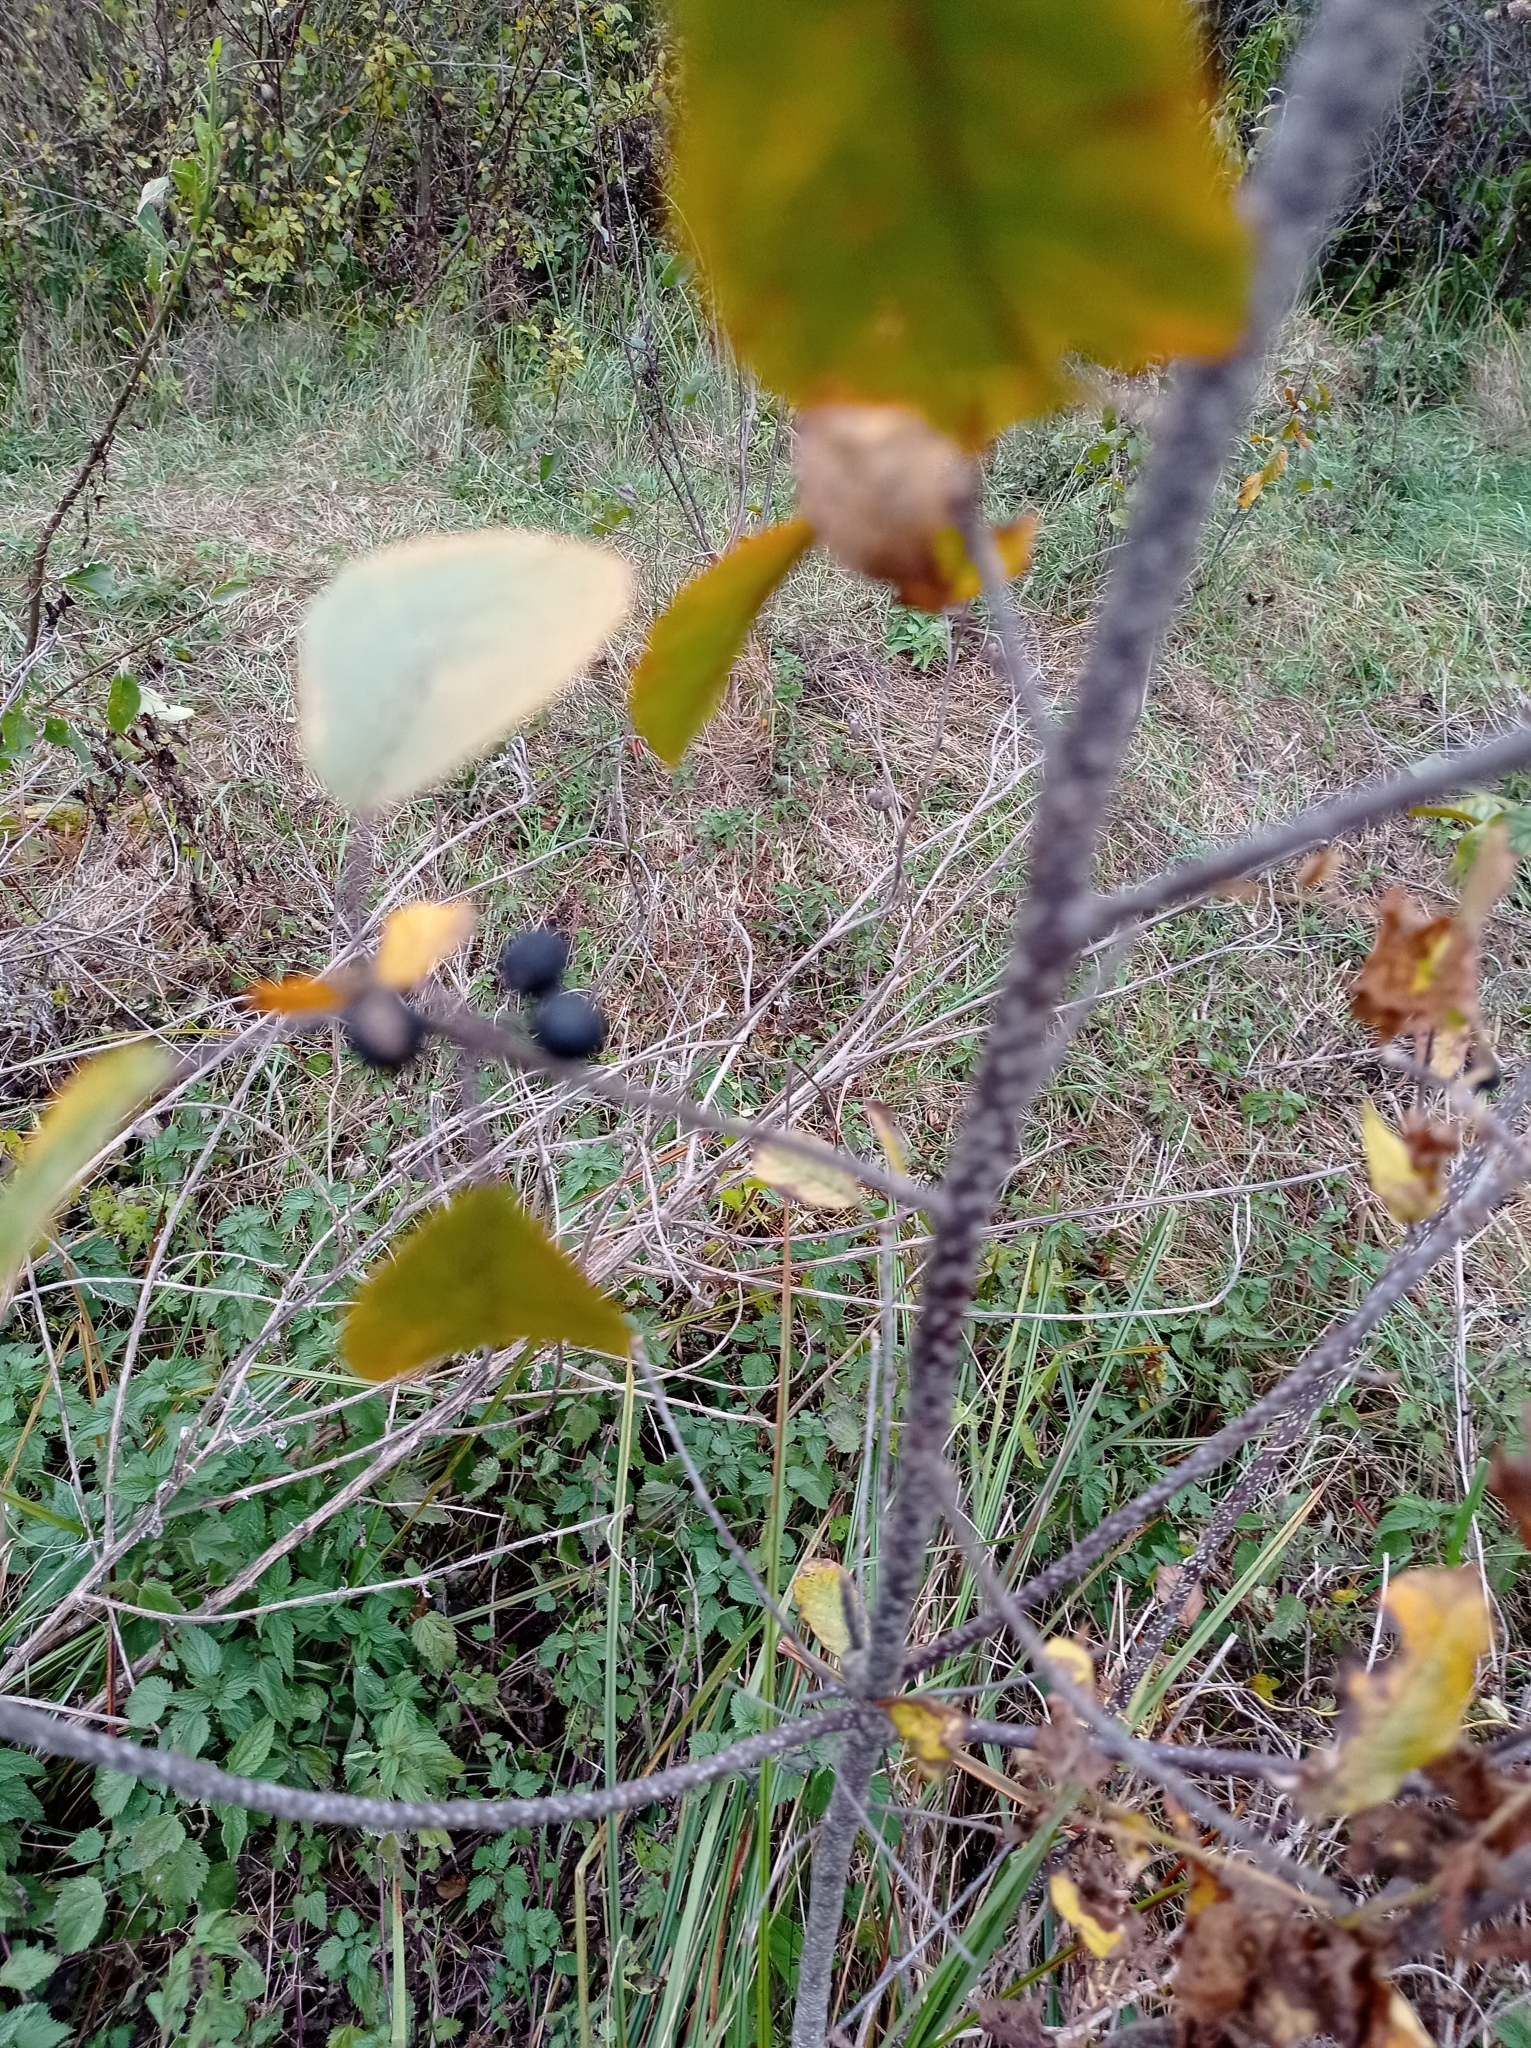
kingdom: Plantae
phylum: Tracheophyta
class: Magnoliopsida
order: Rosales
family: Rhamnaceae
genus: Frangula
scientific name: Frangula alnus
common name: Alder buckthorn
